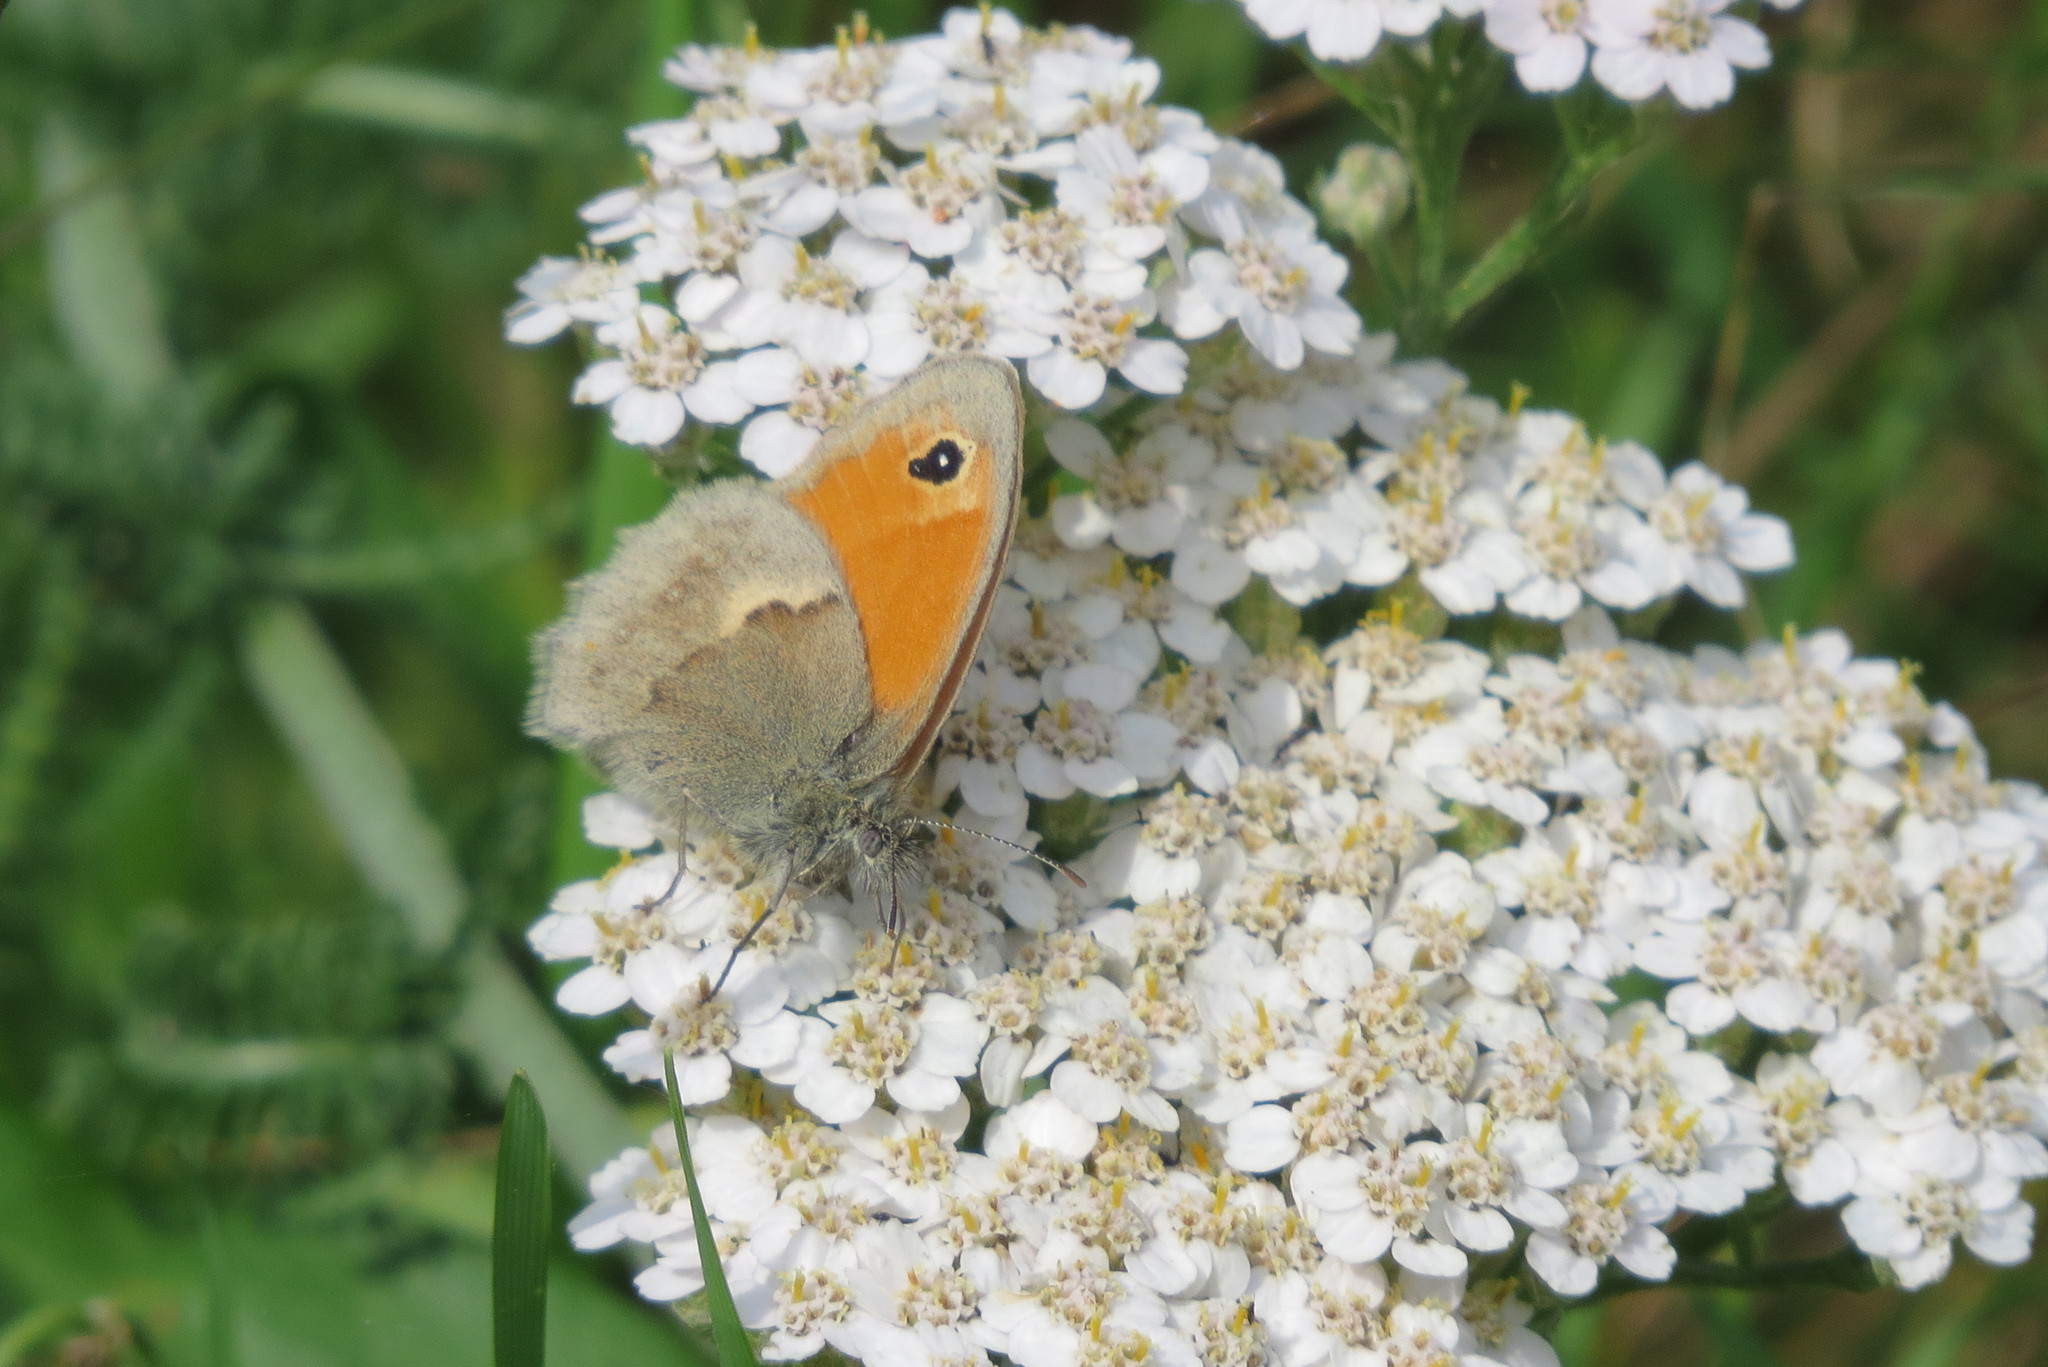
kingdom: Animalia
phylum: Arthropoda
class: Insecta
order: Lepidoptera
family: Nymphalidae
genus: Coenonympha
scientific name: Coenonympha pamphilus
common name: Small heath
